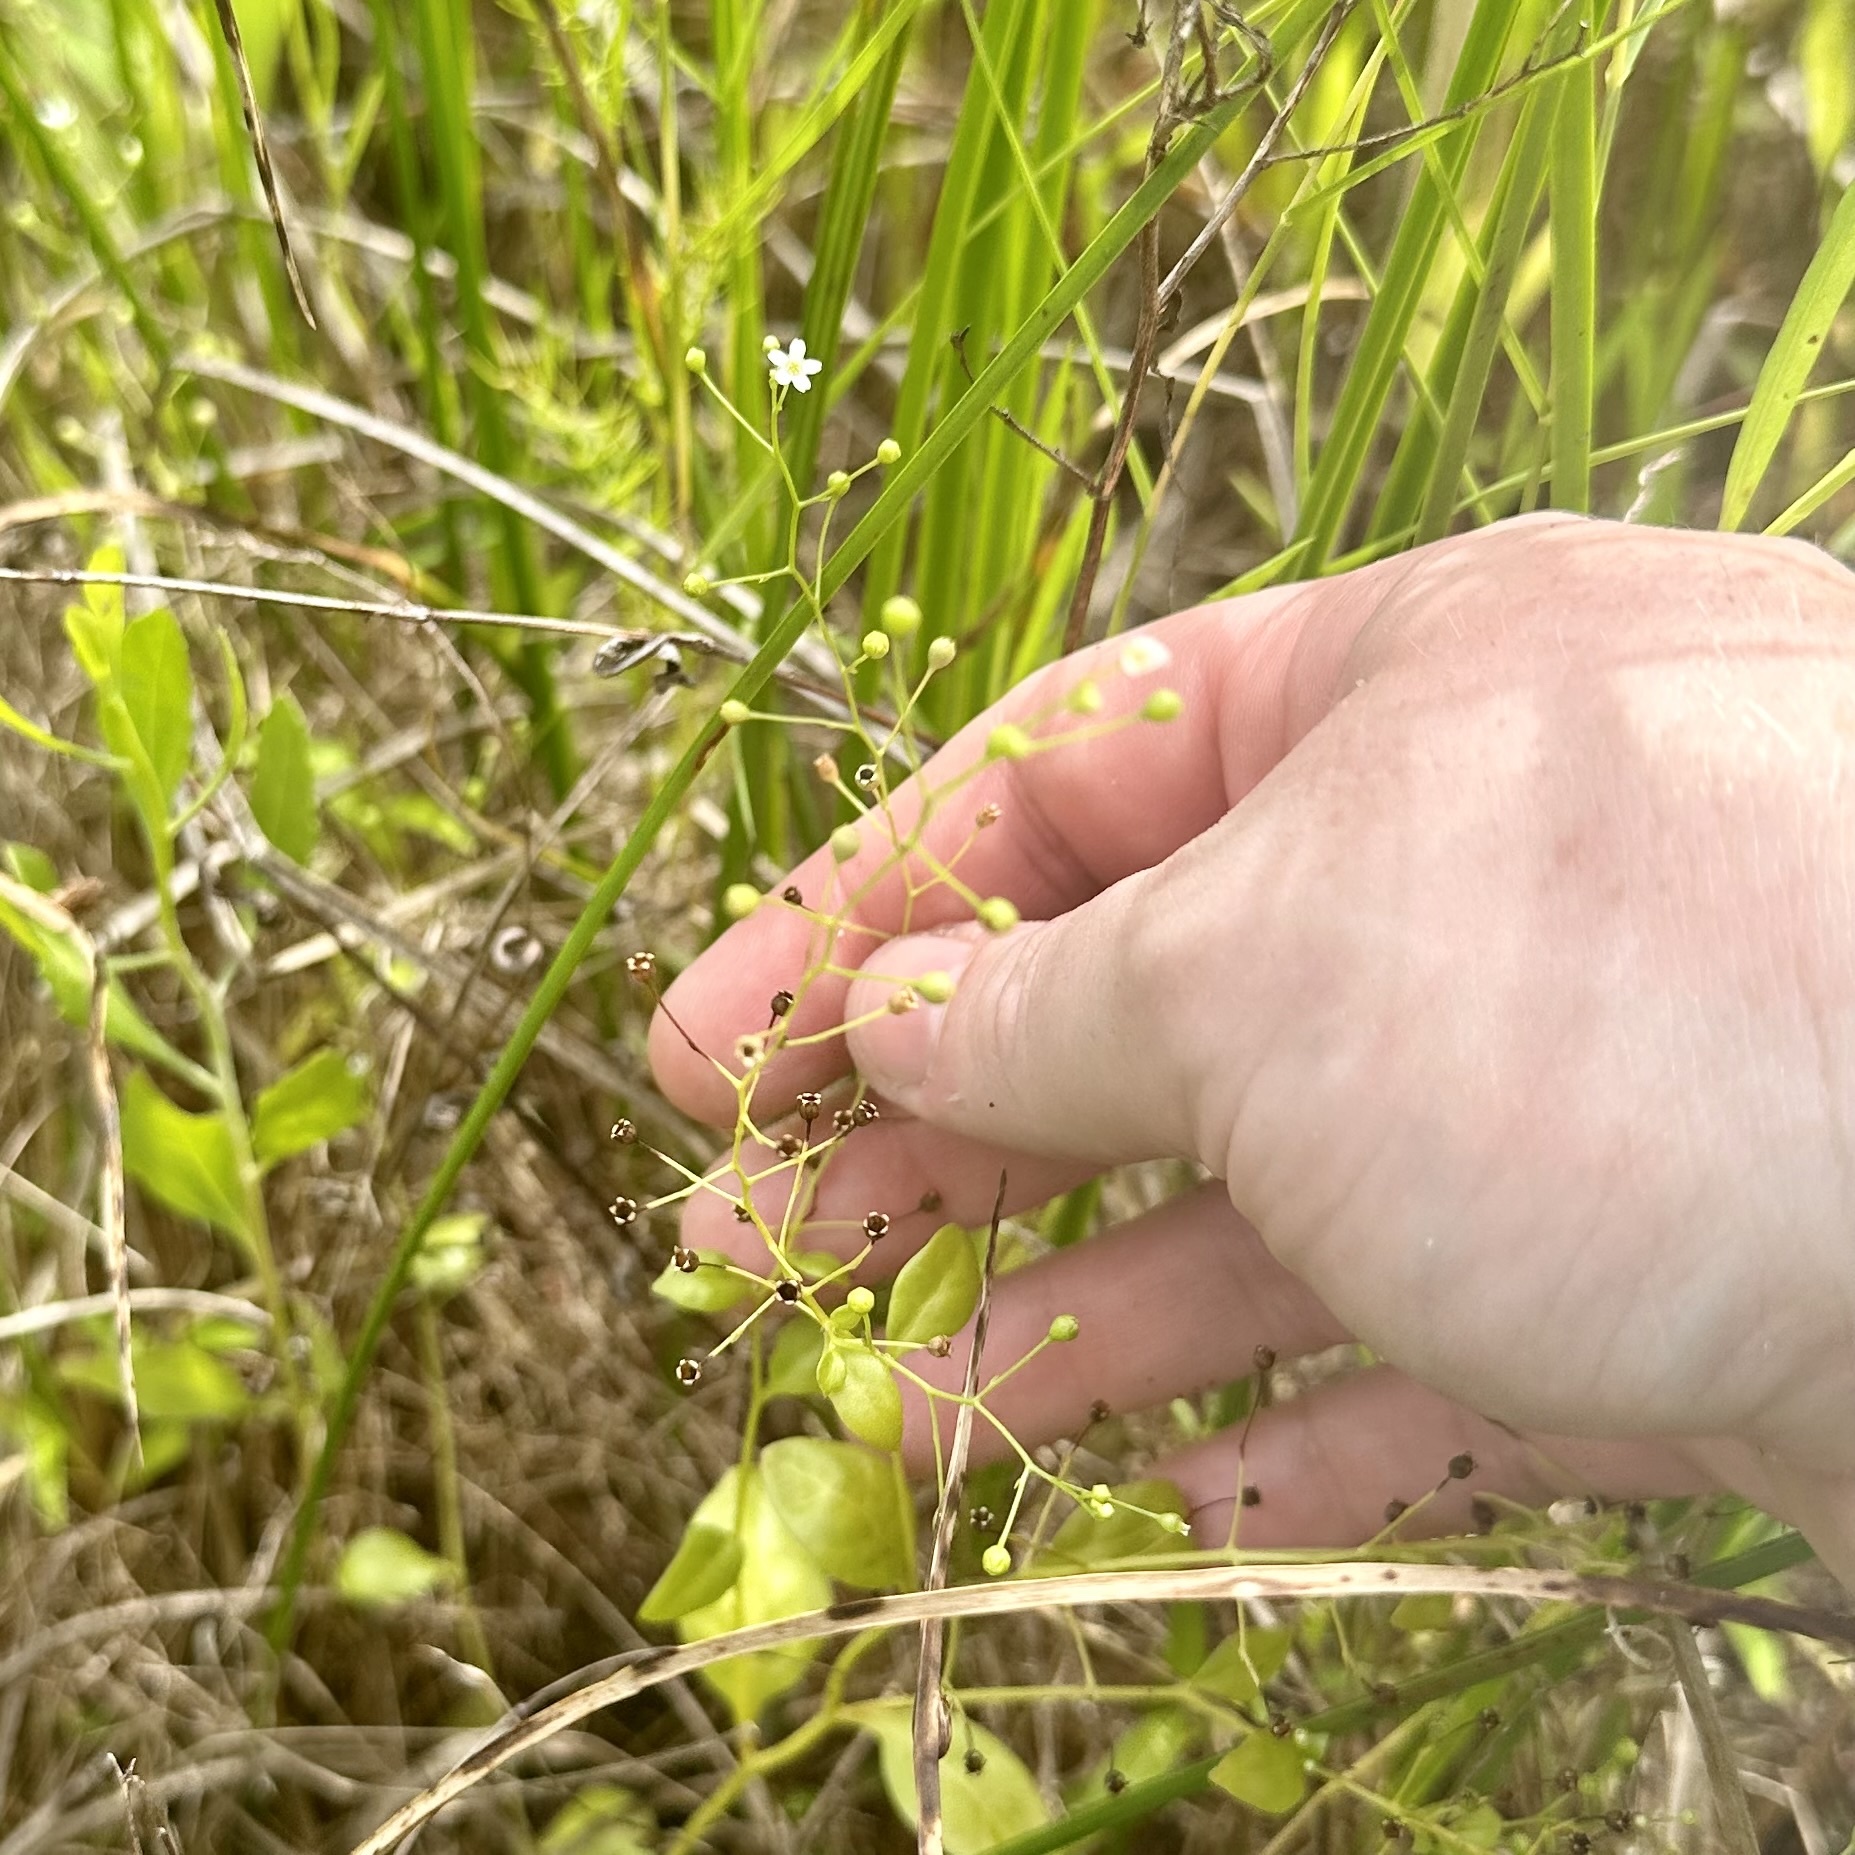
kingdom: Plantae
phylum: Tracheophyta
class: Magnoliopsida
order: Ericales
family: Primulaceae
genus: Samolus
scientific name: Samolus parviflorus
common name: False water pimpernel
